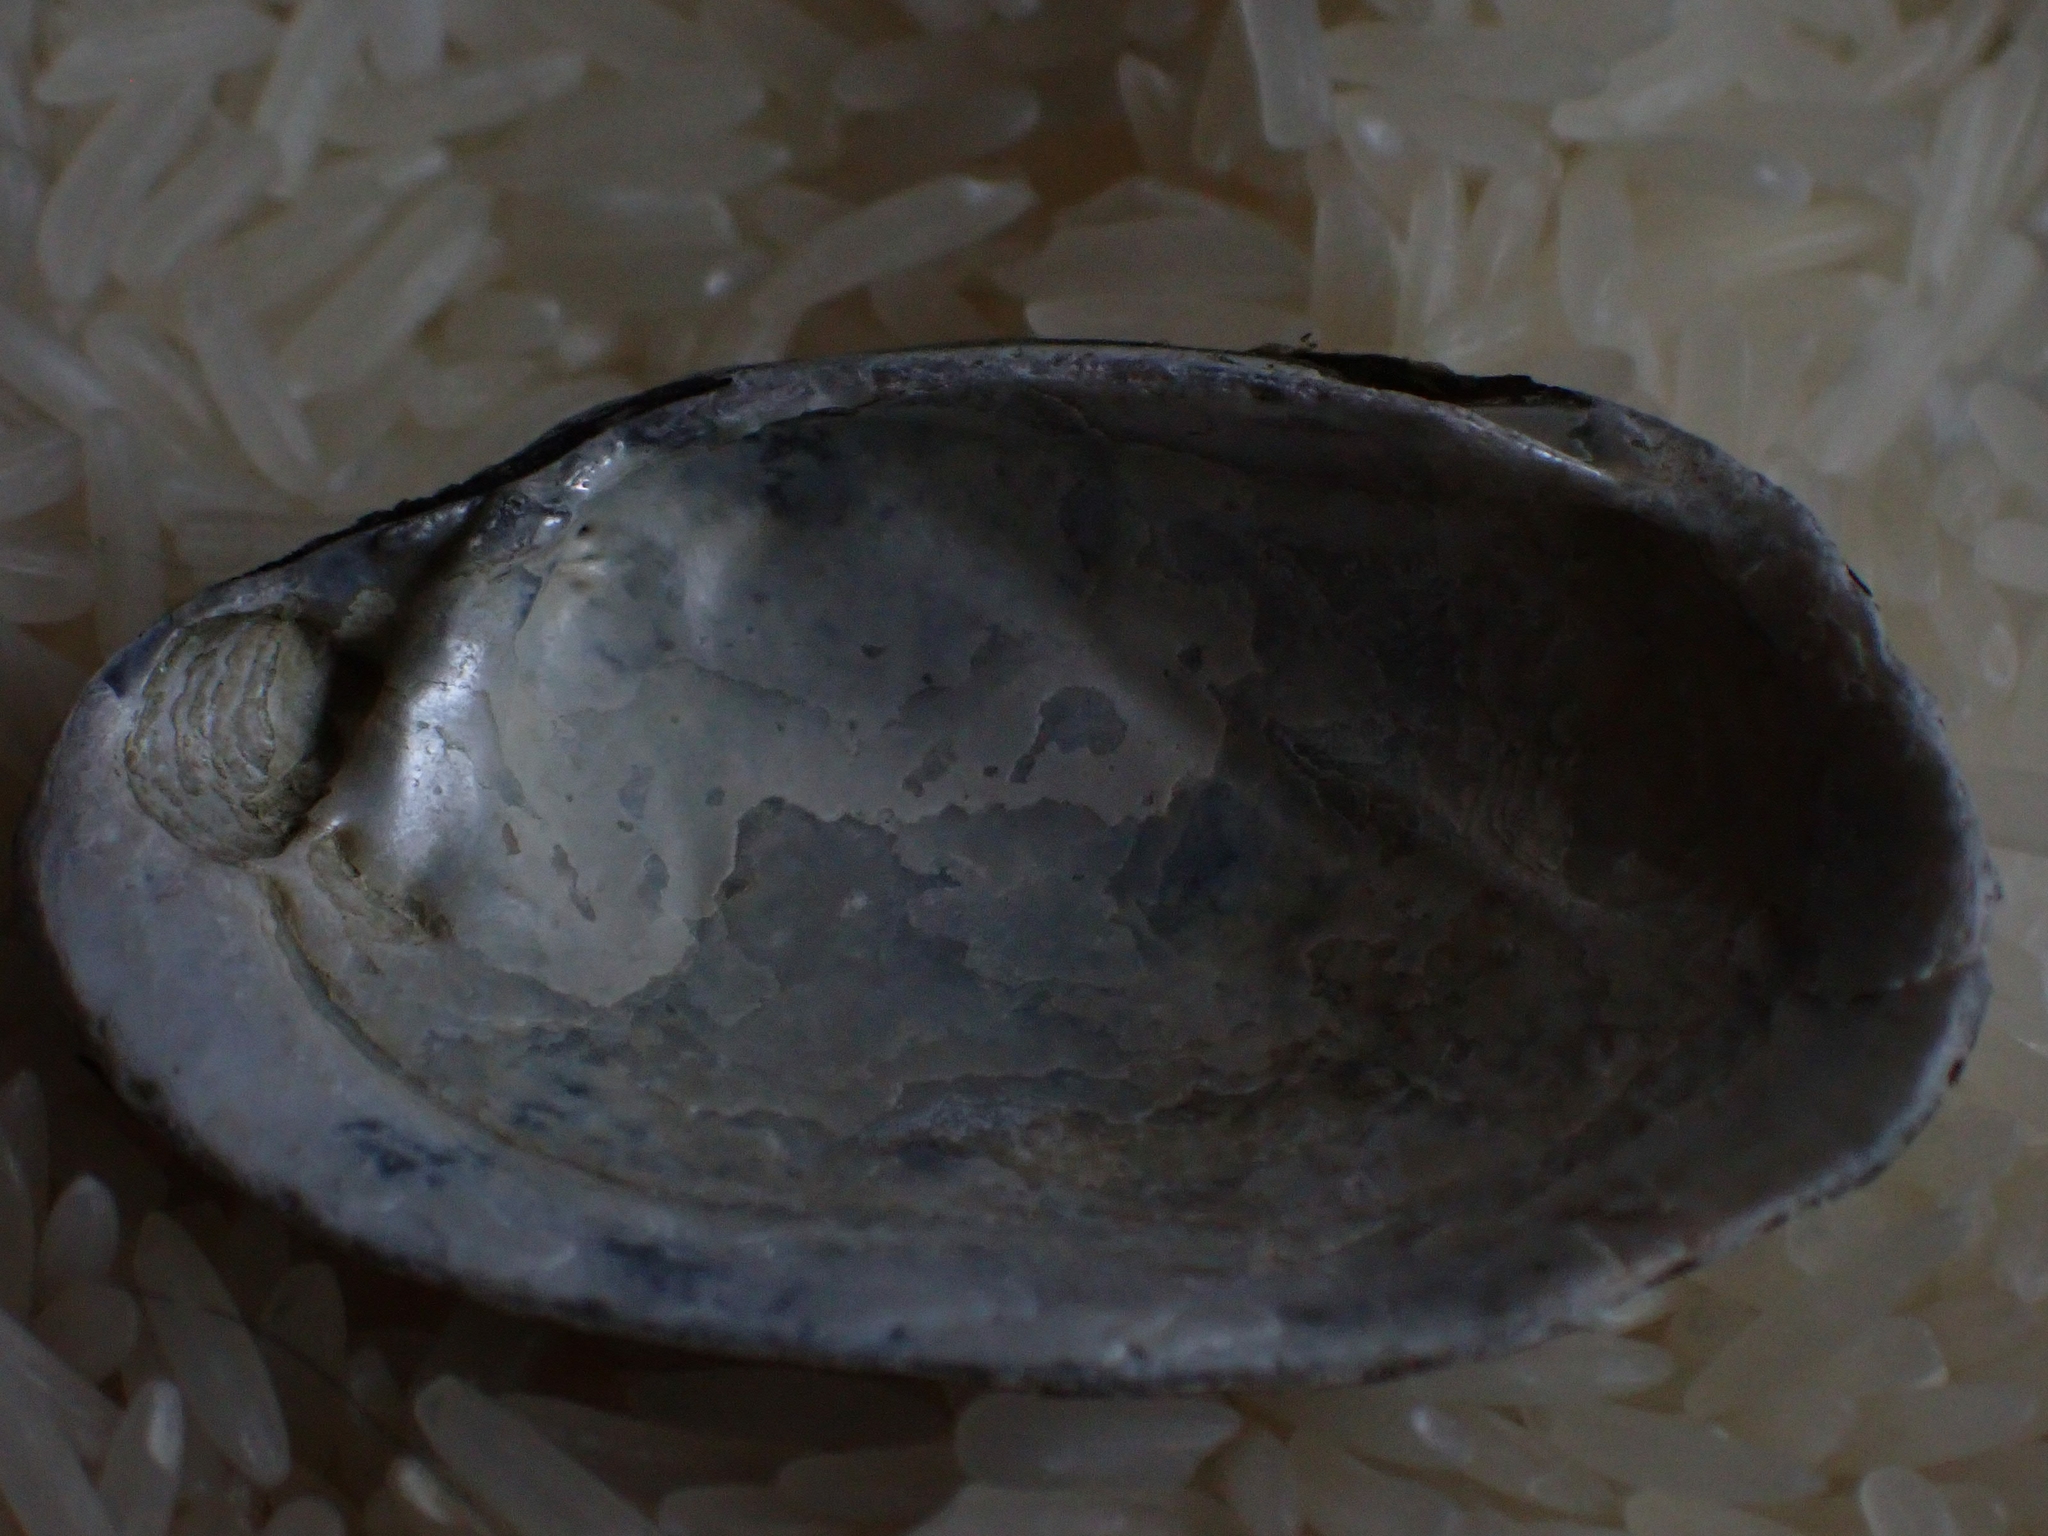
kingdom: Animalia
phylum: Mollusca
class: Bivalvia
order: Unionida
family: Unionidae
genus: Lampsilis
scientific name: Lampsilis siliquoidea
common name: Fatmucket
